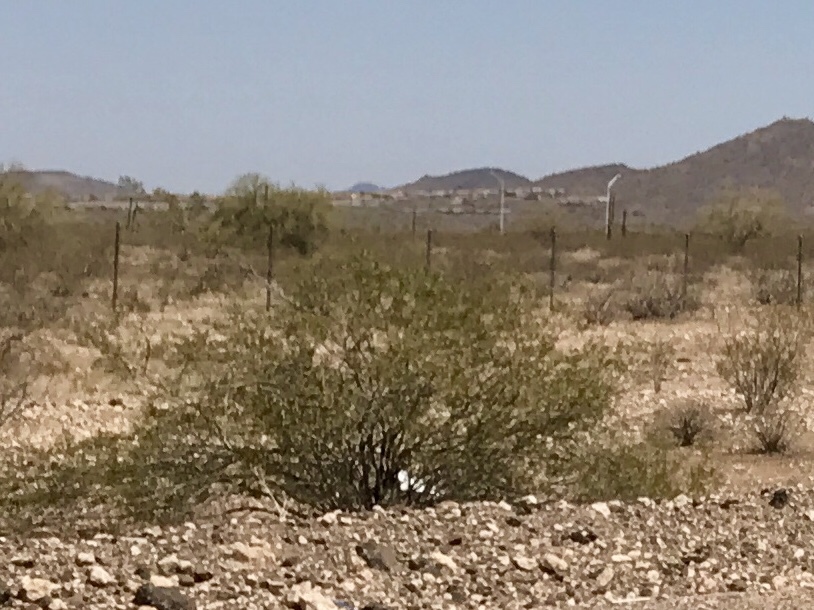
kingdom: Plantae
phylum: Tracheophyta
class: Magnoliopsida
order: Zygophyllales
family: Zygophyllaceae
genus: Larrea
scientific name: Larrea tridentata
